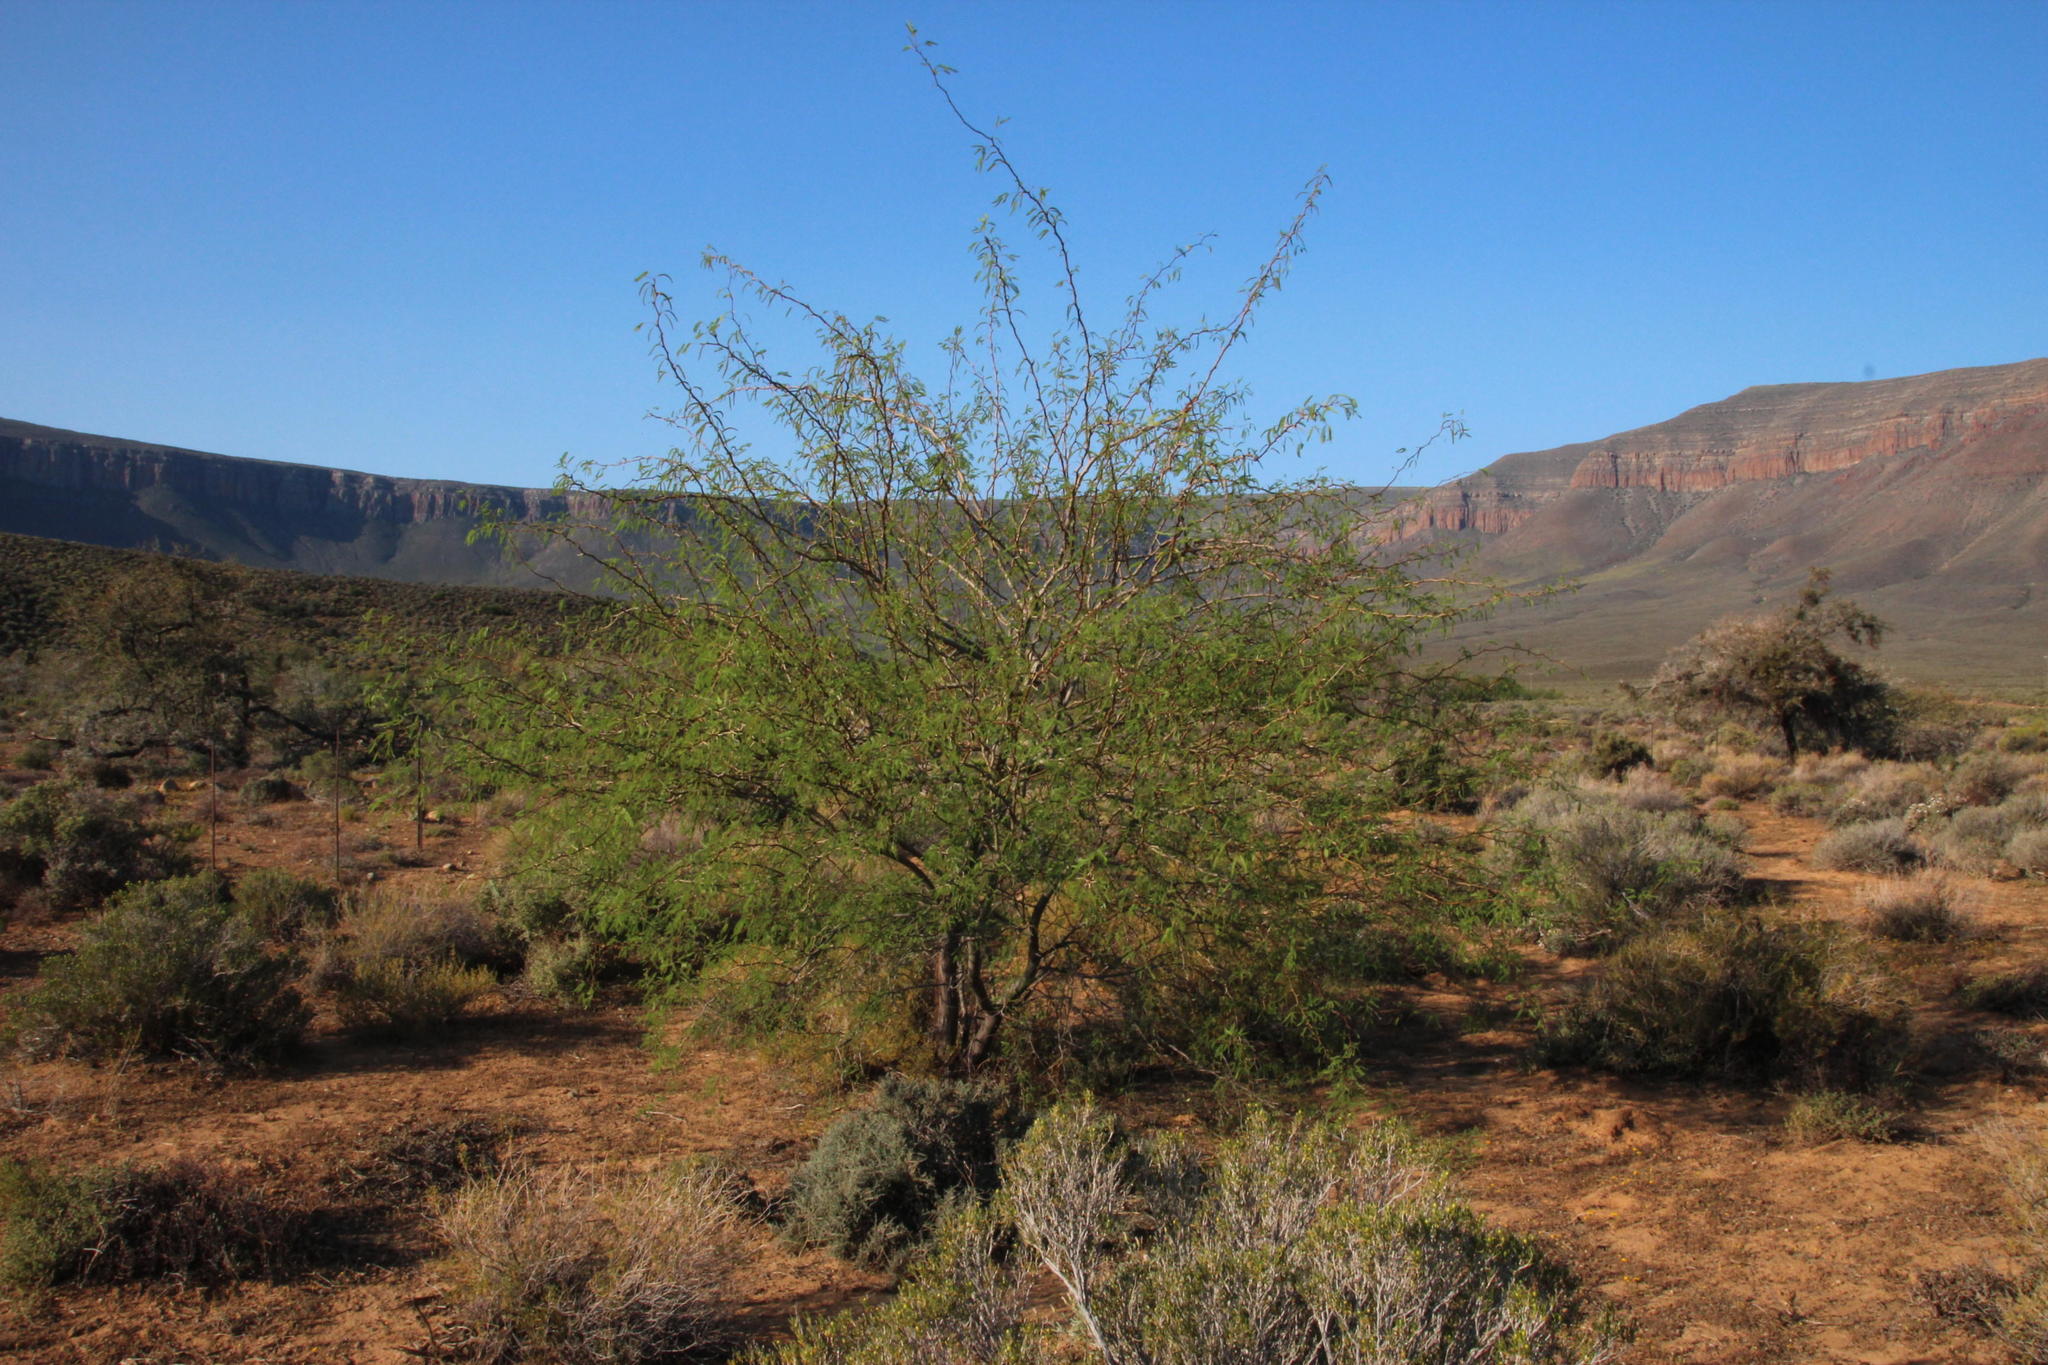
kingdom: Plantae
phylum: Tracheophyta
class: Magnoliopsida
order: Fabales
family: Fabaceae
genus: Prosopis
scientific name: Prosopis glandulosa
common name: Honey mesquite
